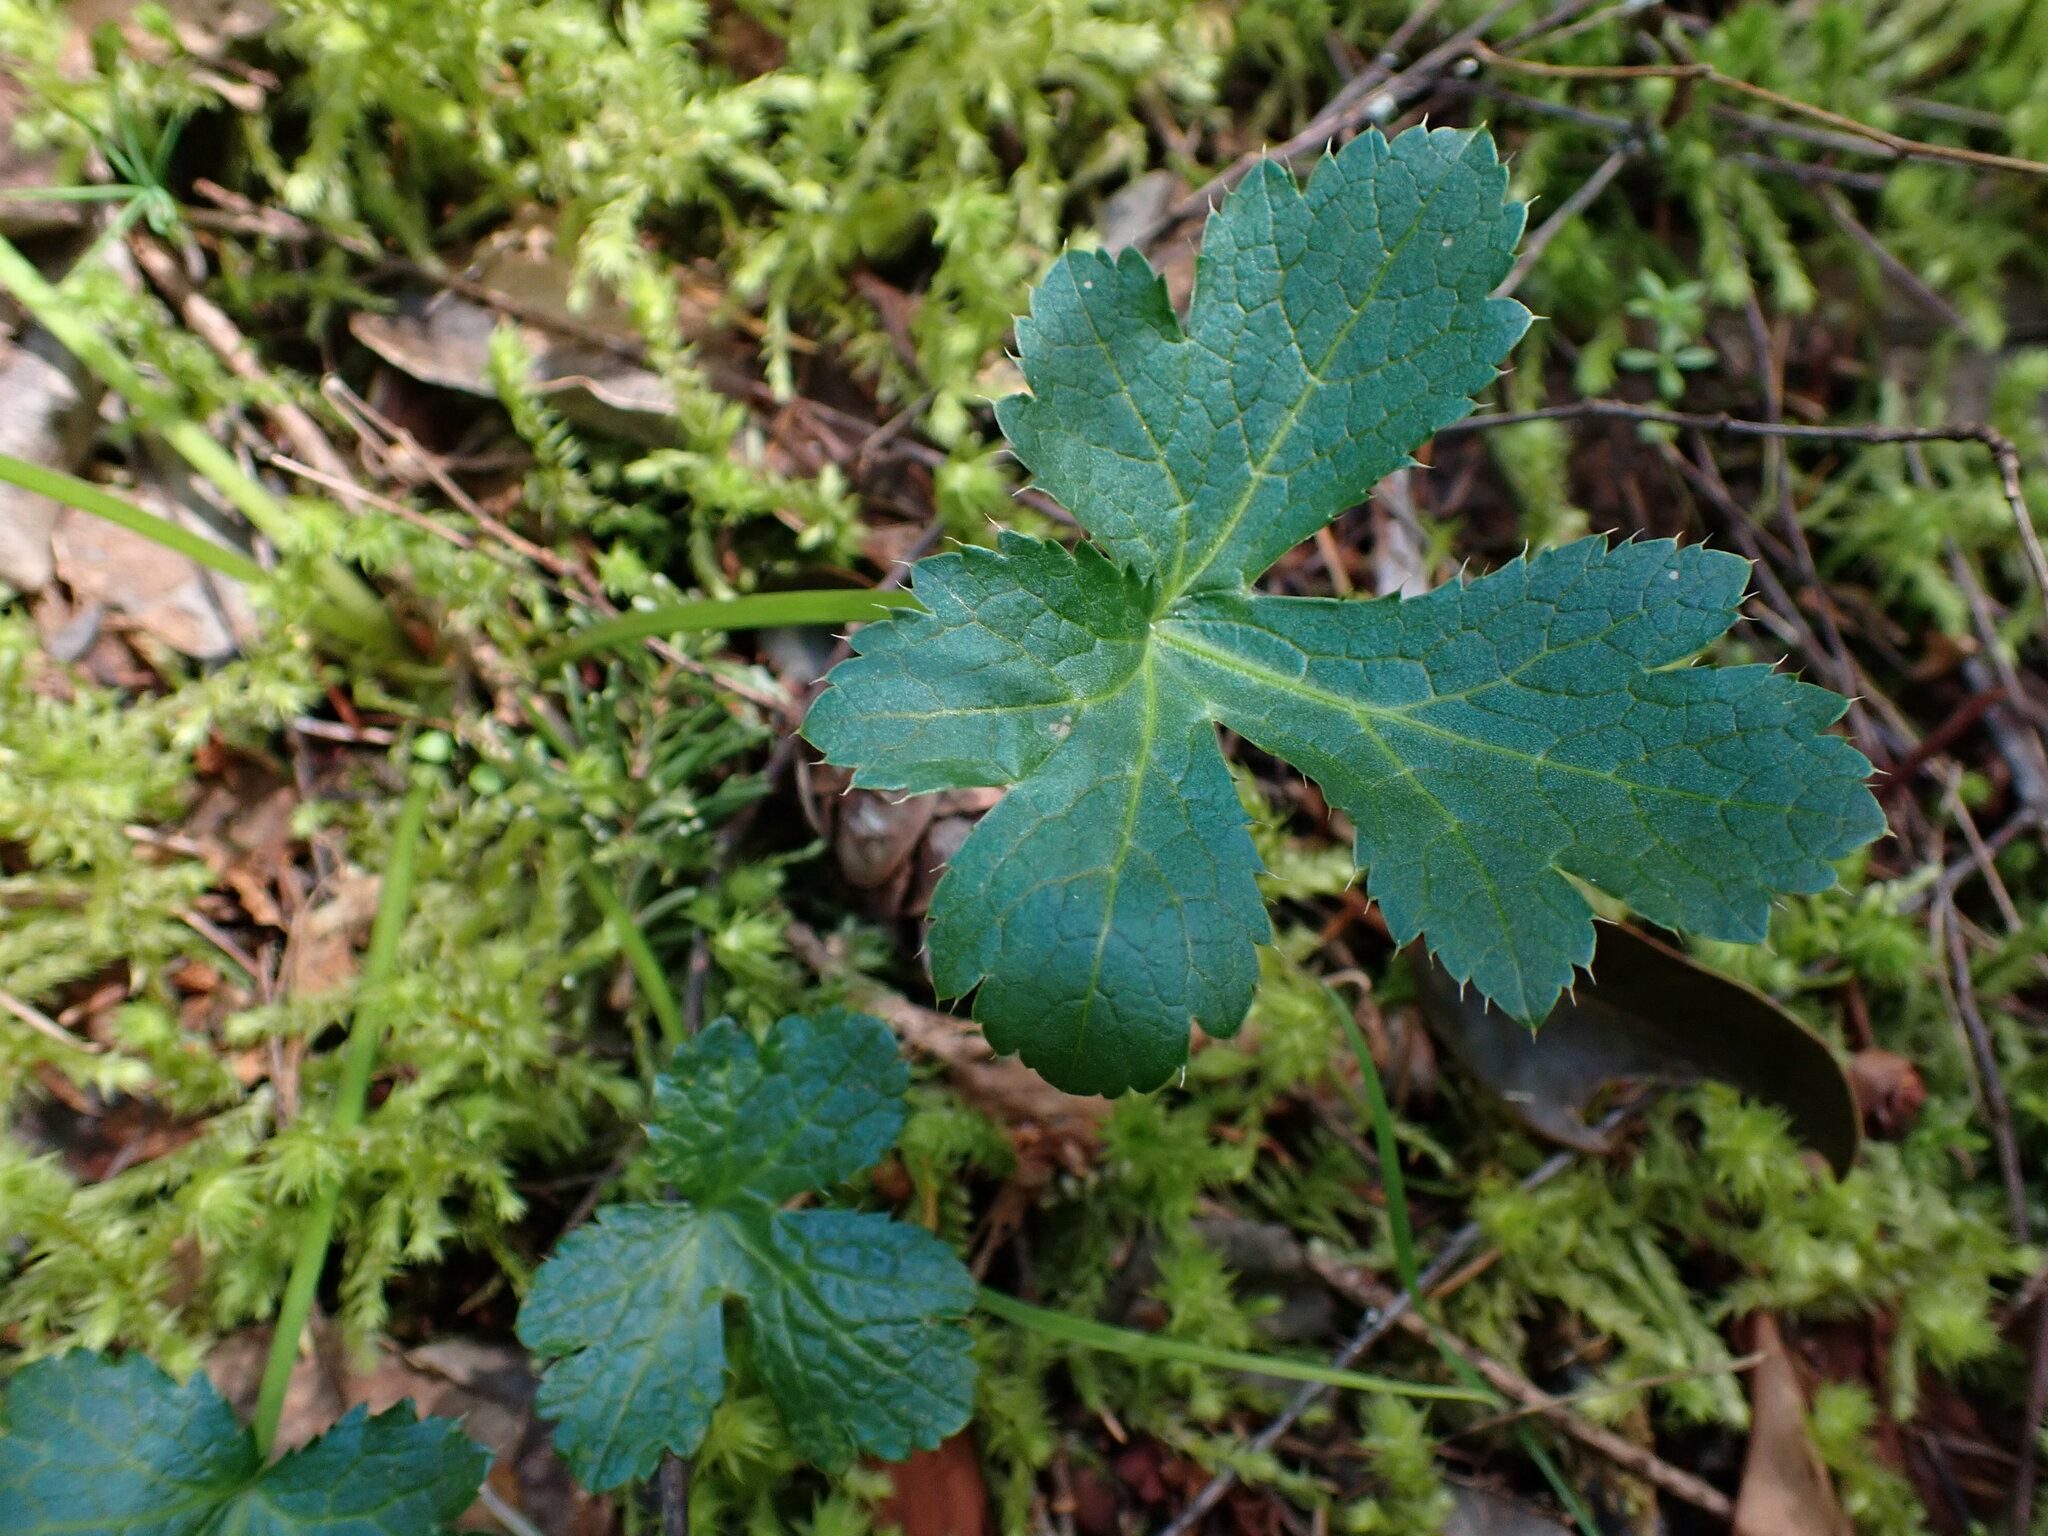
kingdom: Plantae
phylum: Tracheophyta
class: Magnoliopsida
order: Apiales
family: Apiaceae
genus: Sanicula
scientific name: Sanicula crassicaulis
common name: Western snakeroot
